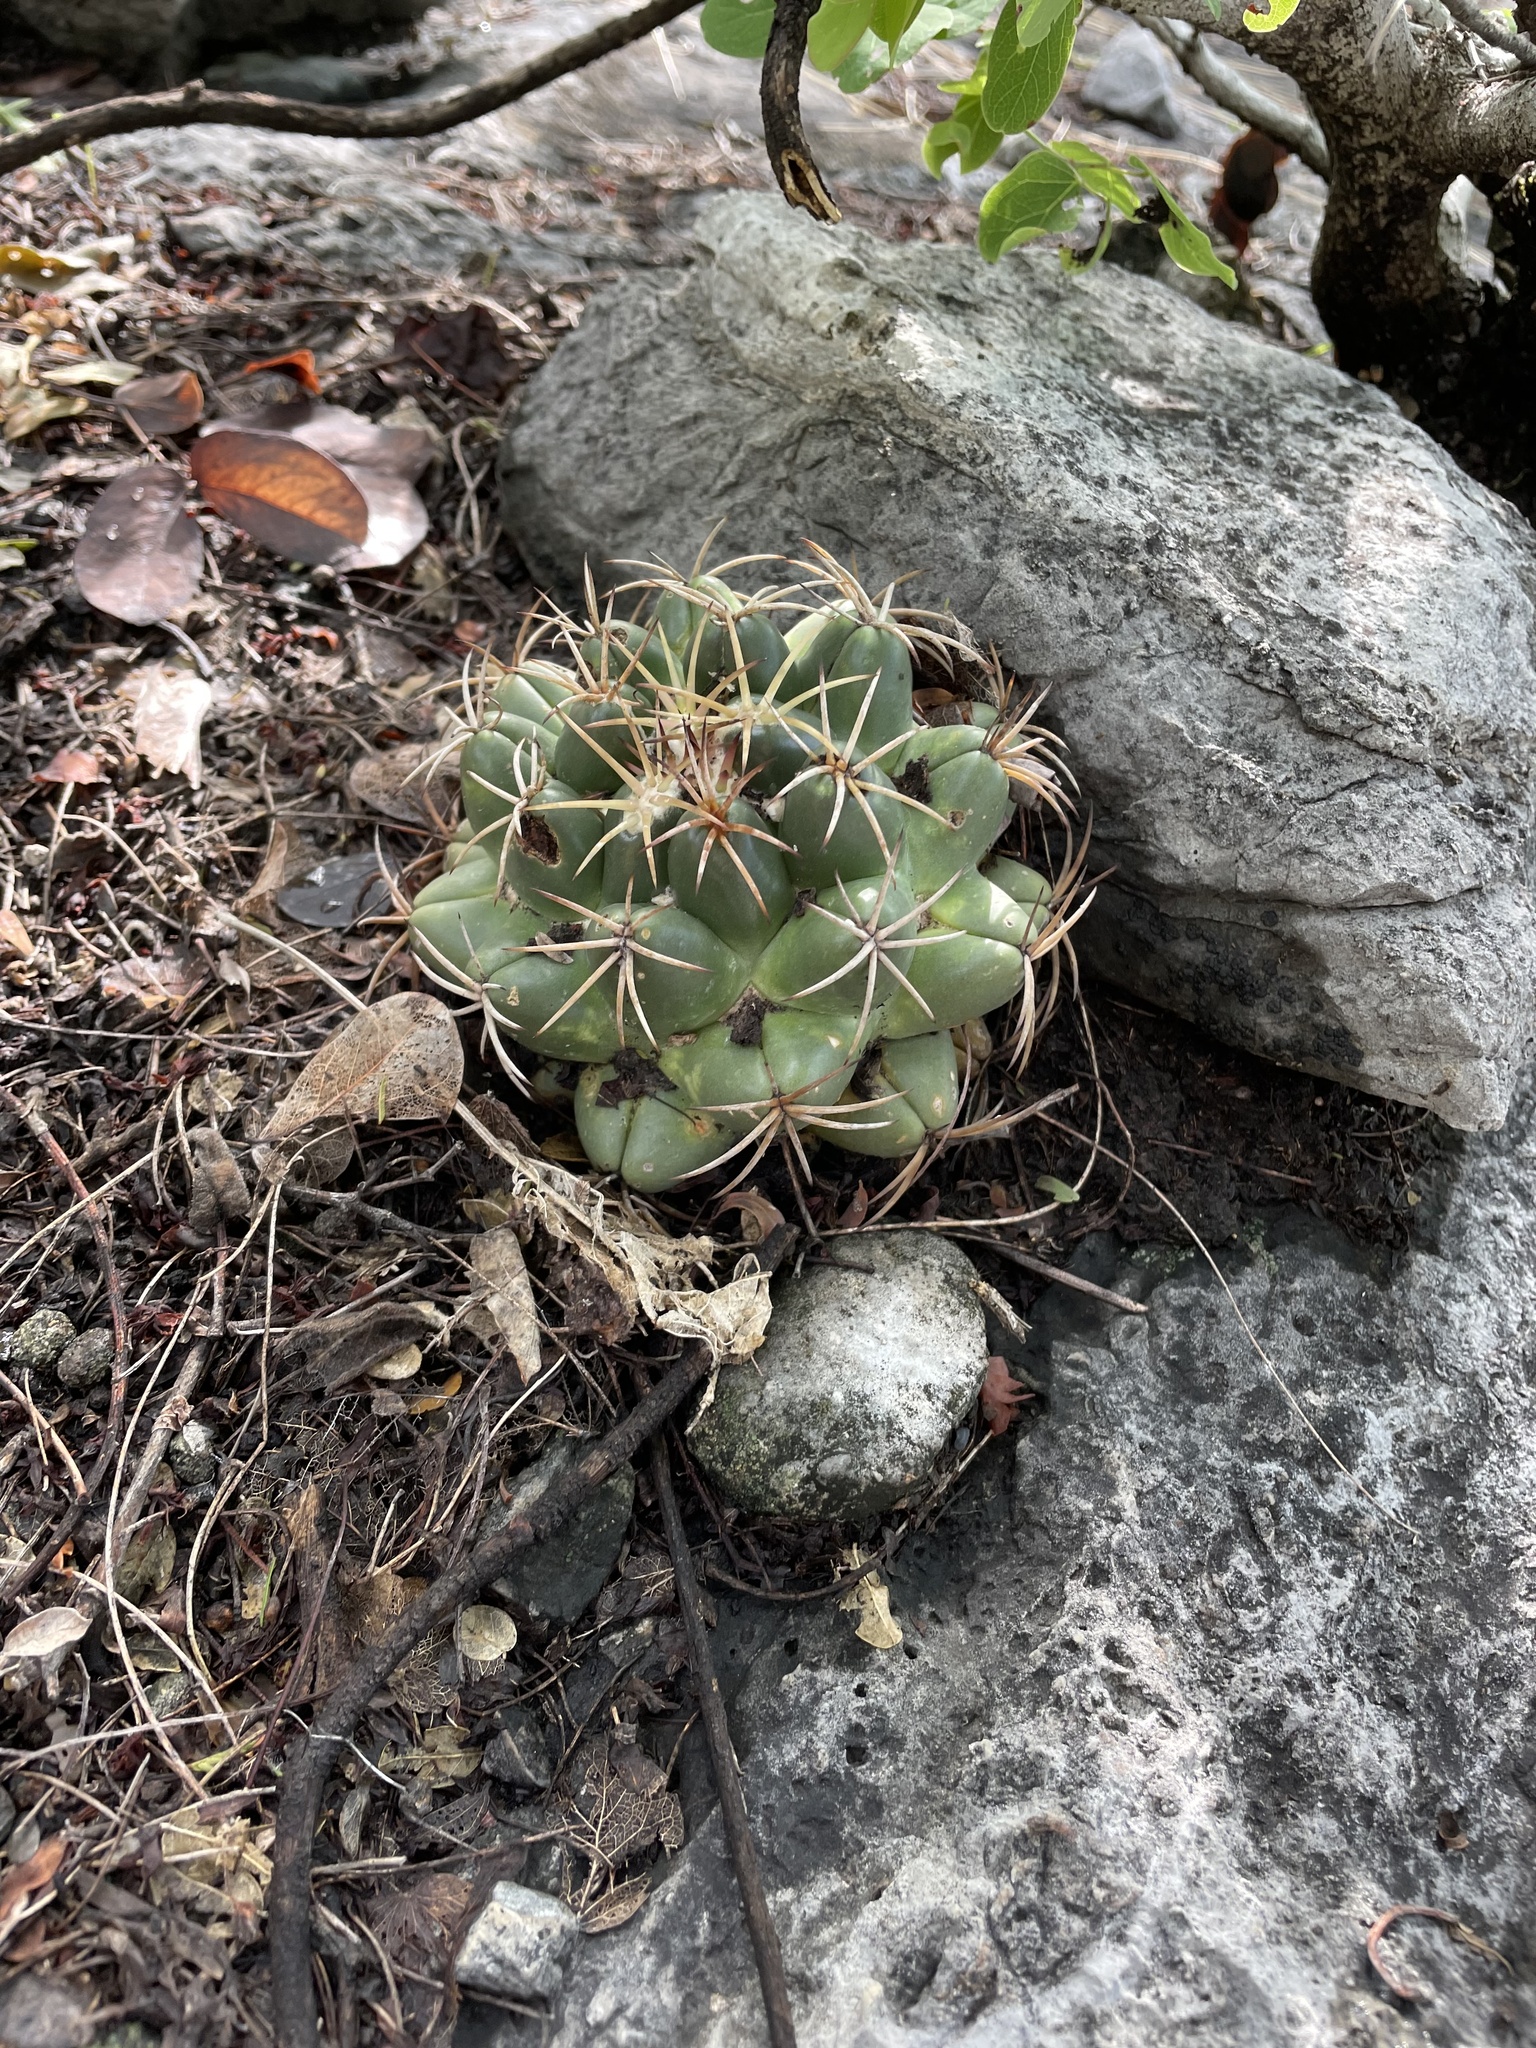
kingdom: Plantae
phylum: Tracheophyta
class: Magnoliopsida
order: Caryophyllales
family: Cactaceae
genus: Coryphantha
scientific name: Coryphantha elephantidens
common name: Elephant's tooth
